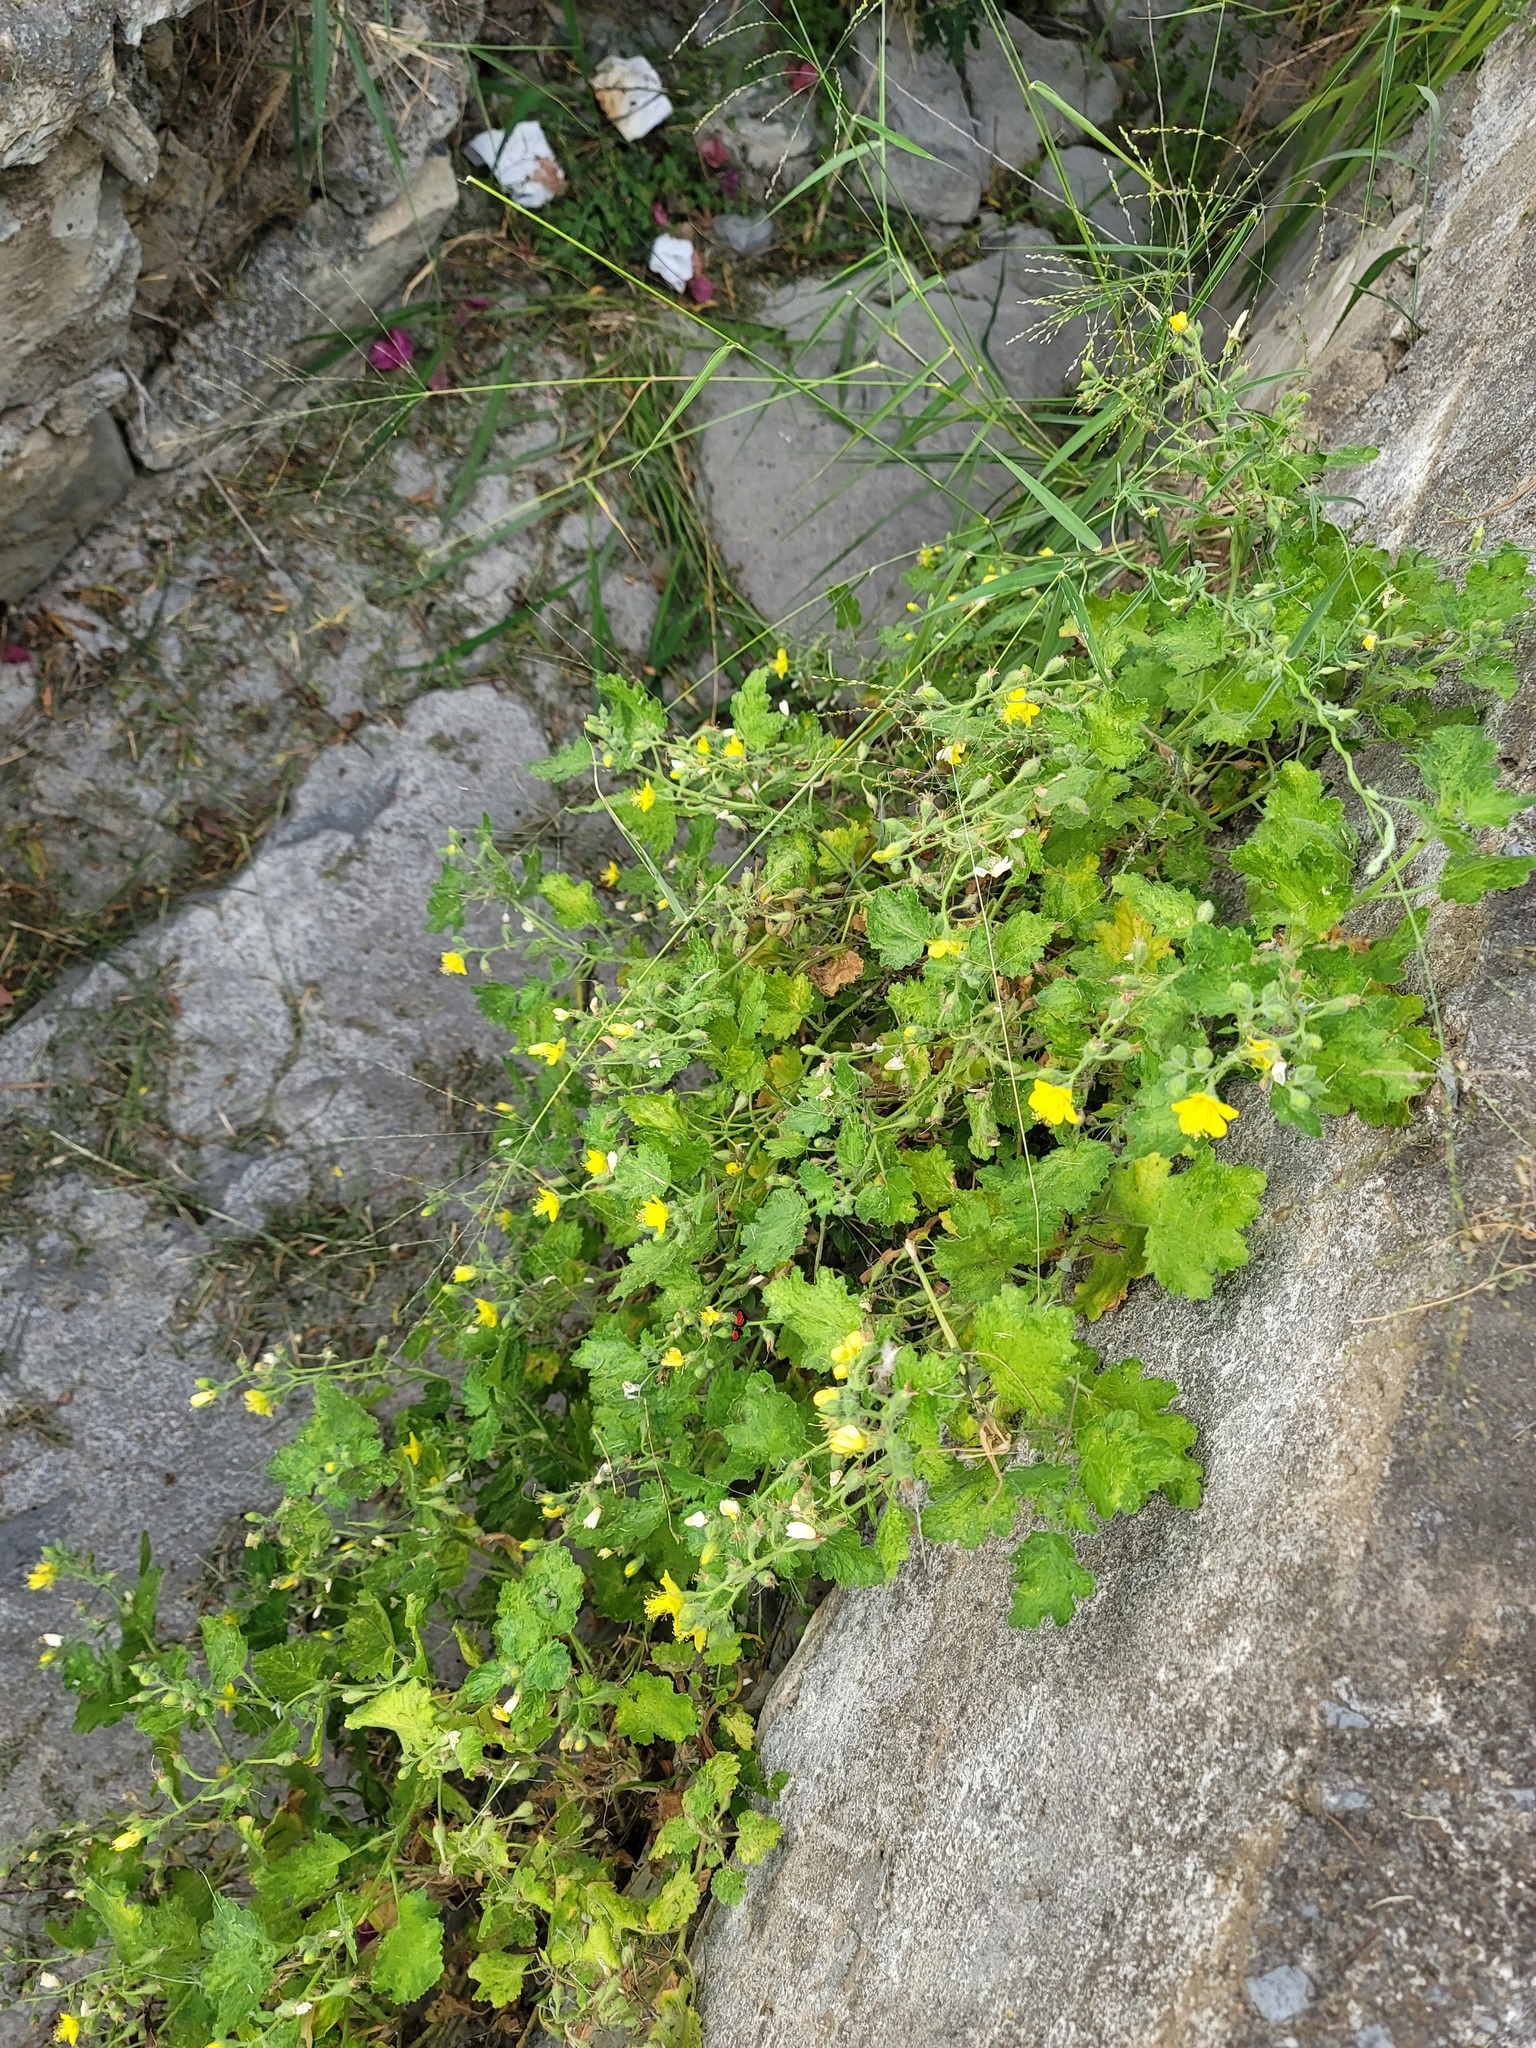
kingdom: Plantae
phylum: Tracheophyta
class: Magnoliopsida
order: Cornales
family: Loasaceae
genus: Eucnide
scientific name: Eucnide lobata
